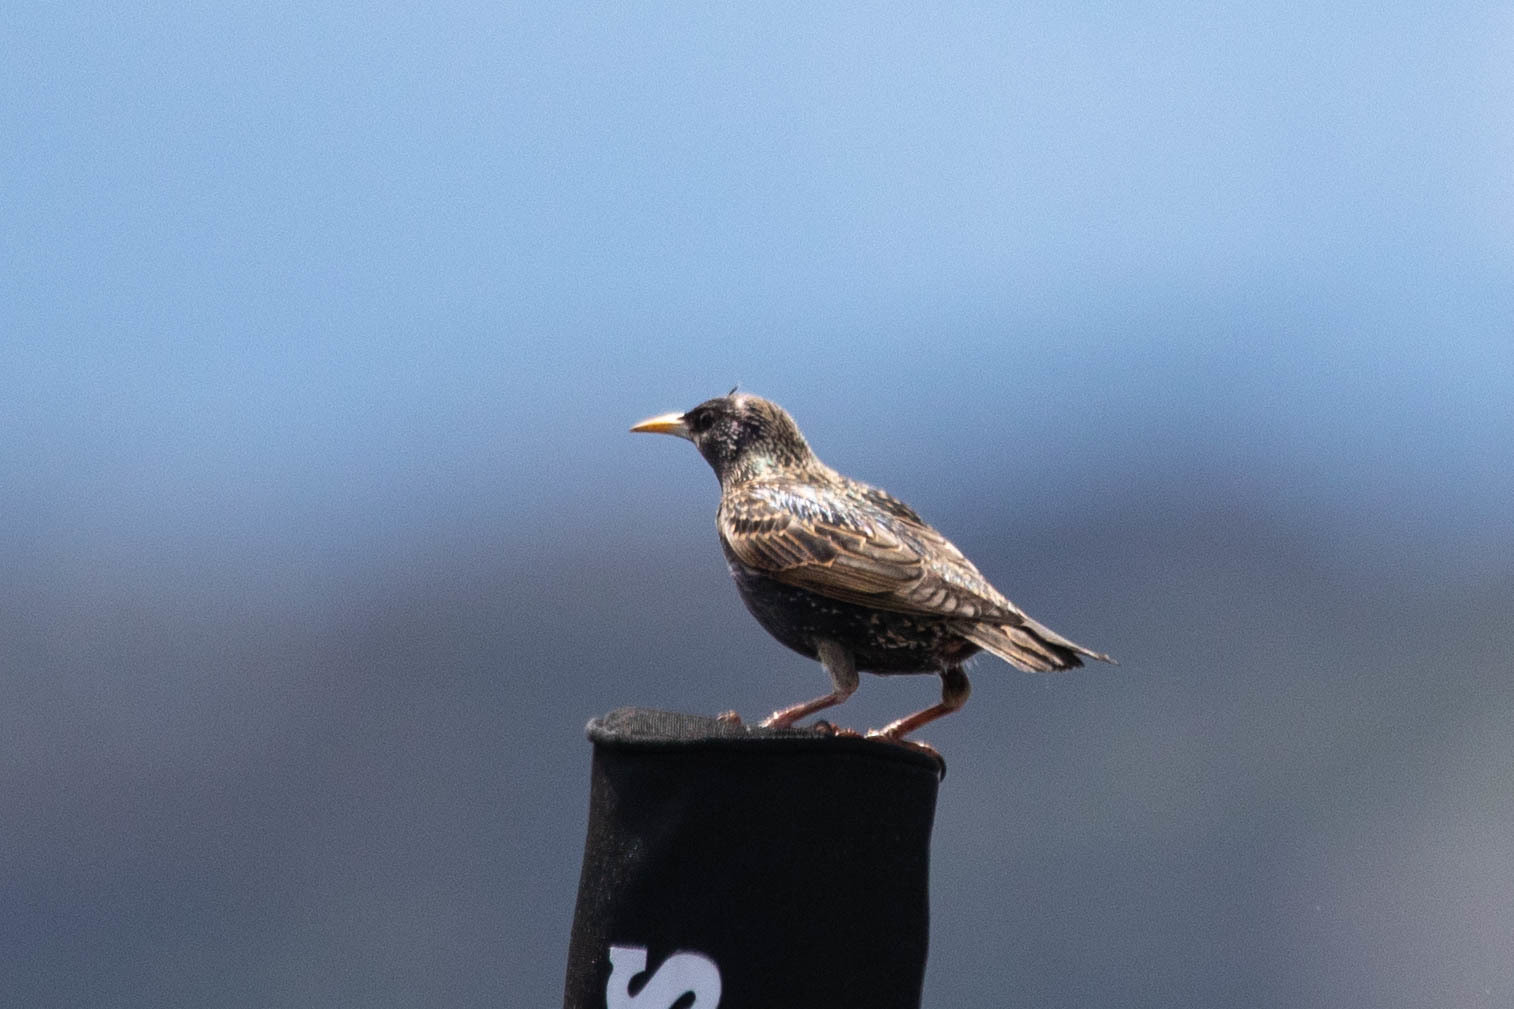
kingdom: Animalia
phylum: Chordata
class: Aves
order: Passeriformes
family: Sturnidae
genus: Sturnus
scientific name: Sturnus vulgaris
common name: Common starling
